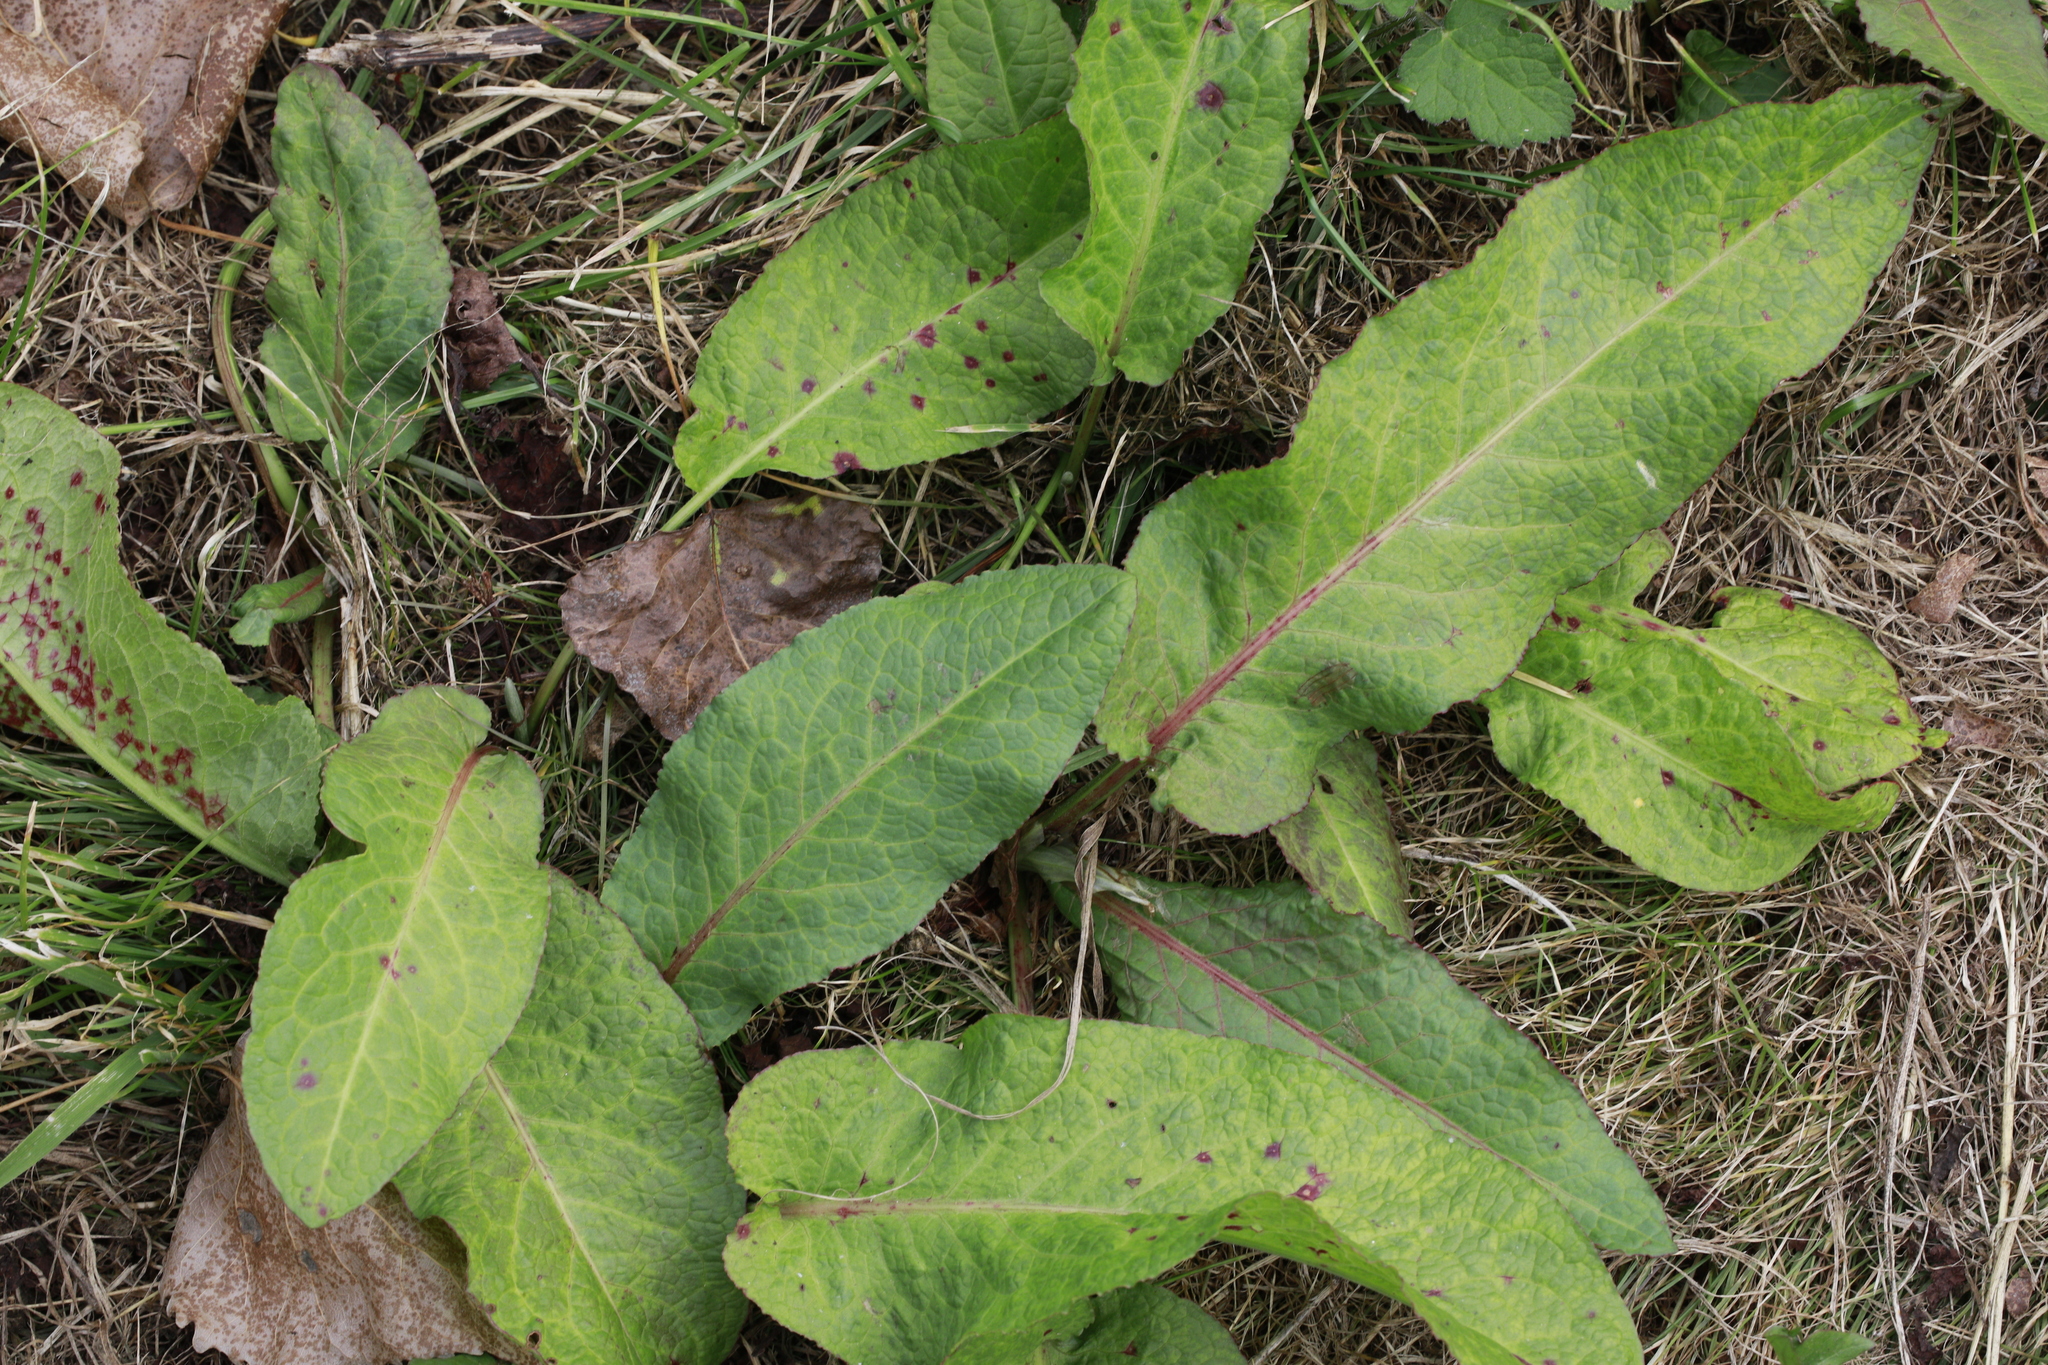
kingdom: Plantae
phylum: Tracheophyta
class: Magnoliopsida
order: Caryophyllales
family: Polygonaceae
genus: Rumex
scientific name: Rumex obtusifolius
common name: Bitter dock
